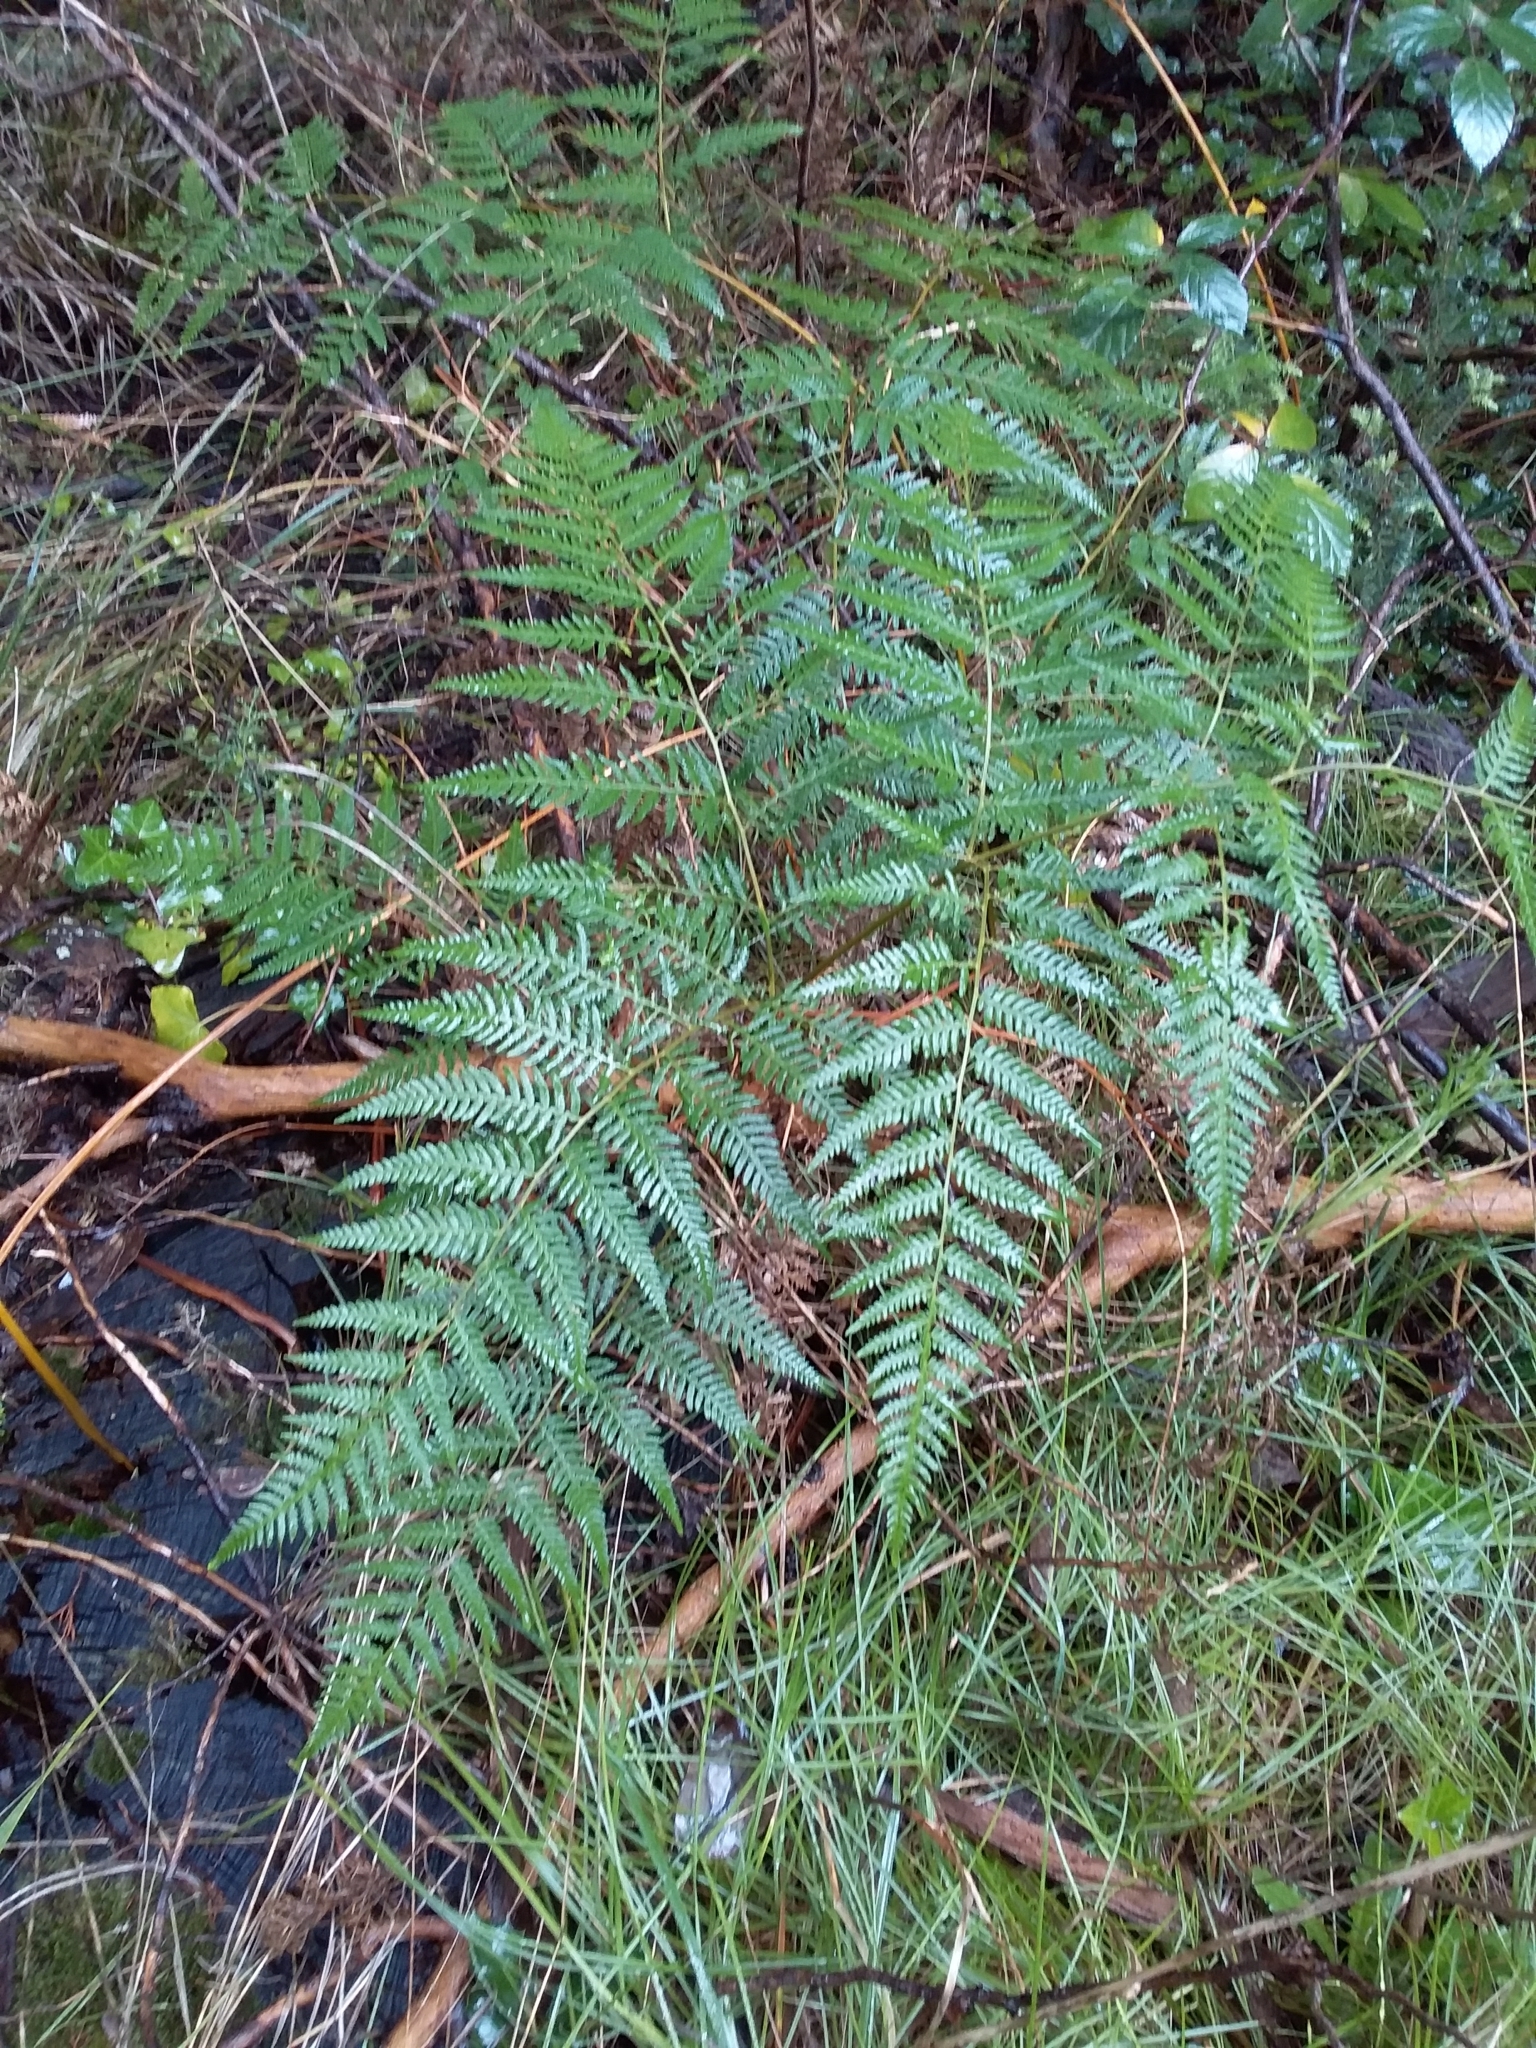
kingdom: Plantae
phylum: Tracheophyta
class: Polypodiopsida
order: Polypodiales
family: Dennstaedtiaceae
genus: Pteridium
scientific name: Pteridium esculentum
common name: Bracken fern
